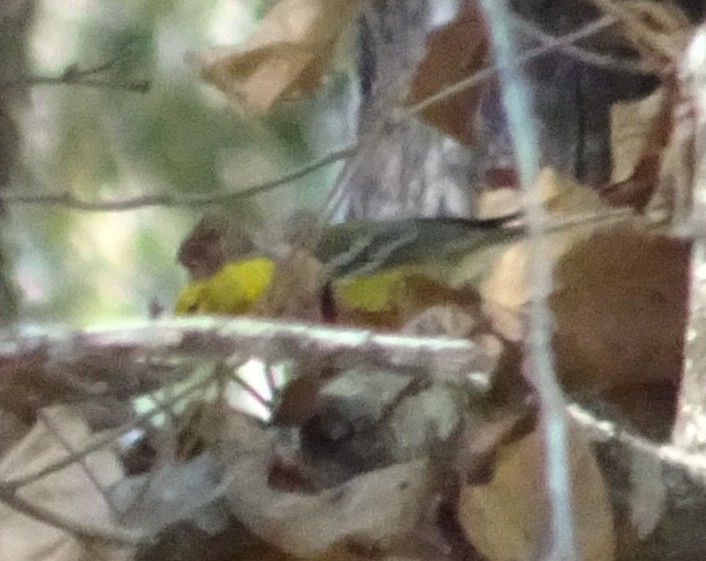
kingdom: Animalia
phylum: Chordata
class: Aves
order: Passeriformes
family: Parulidae
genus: Setophaga
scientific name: Setophaga pinus
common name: Pine warbler
